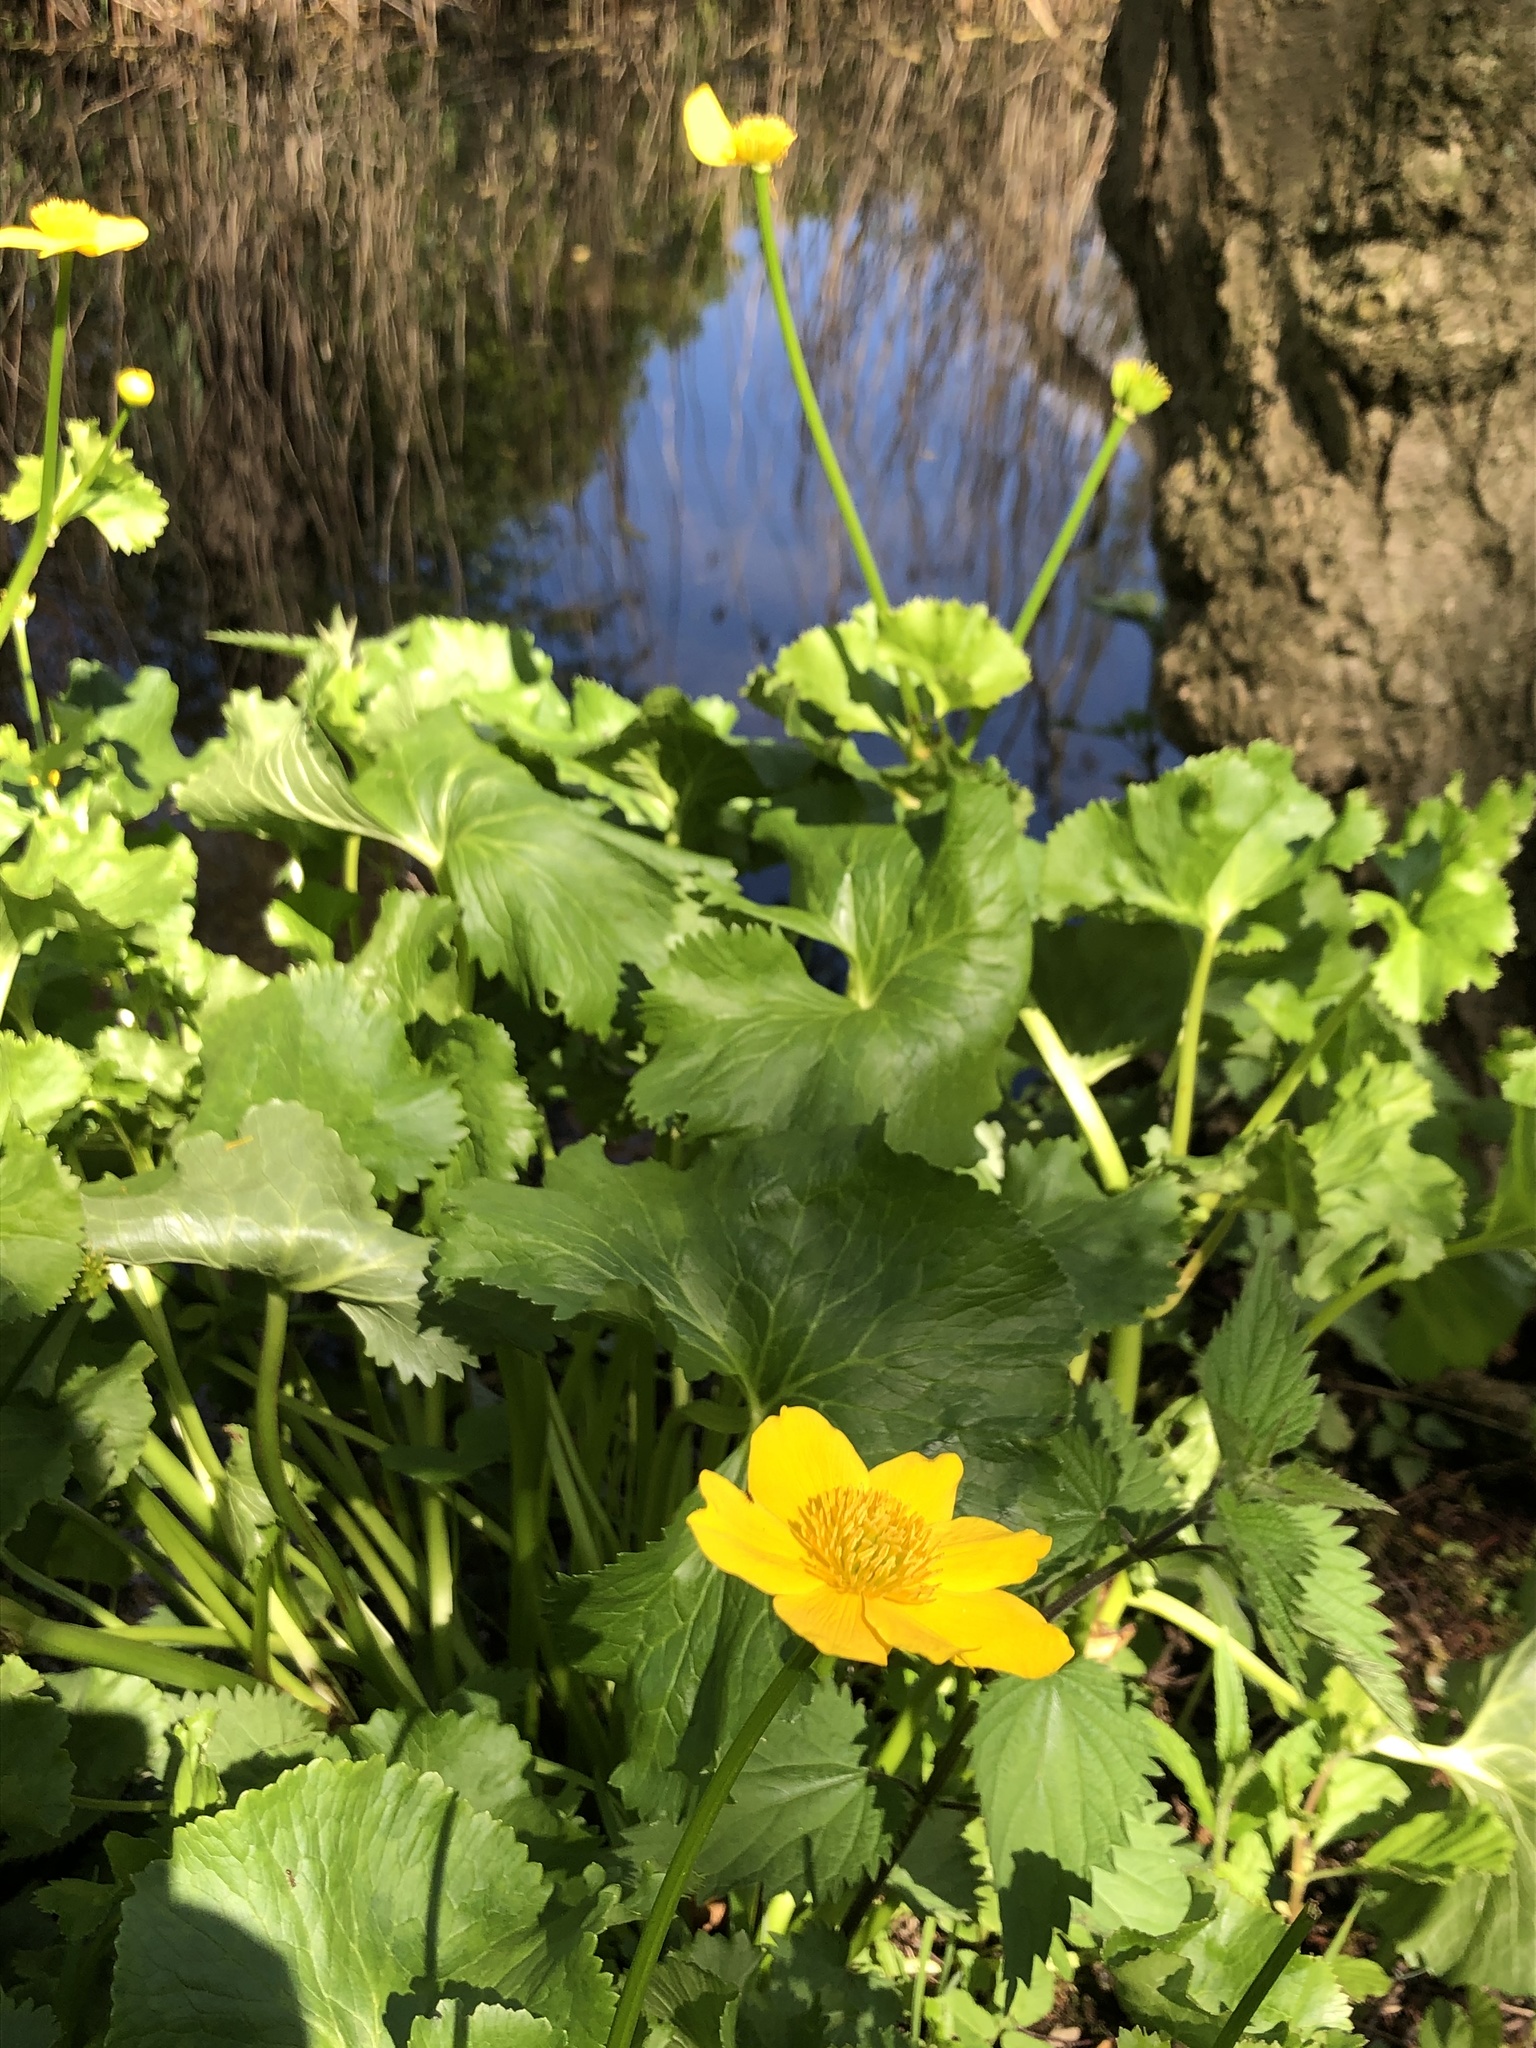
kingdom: Plantae
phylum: Tracheophyta
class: Magnoliopsida
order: Ranunculales
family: Ranunculaceae
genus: Caltha
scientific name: Caltha palustris
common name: Marsh marigold
